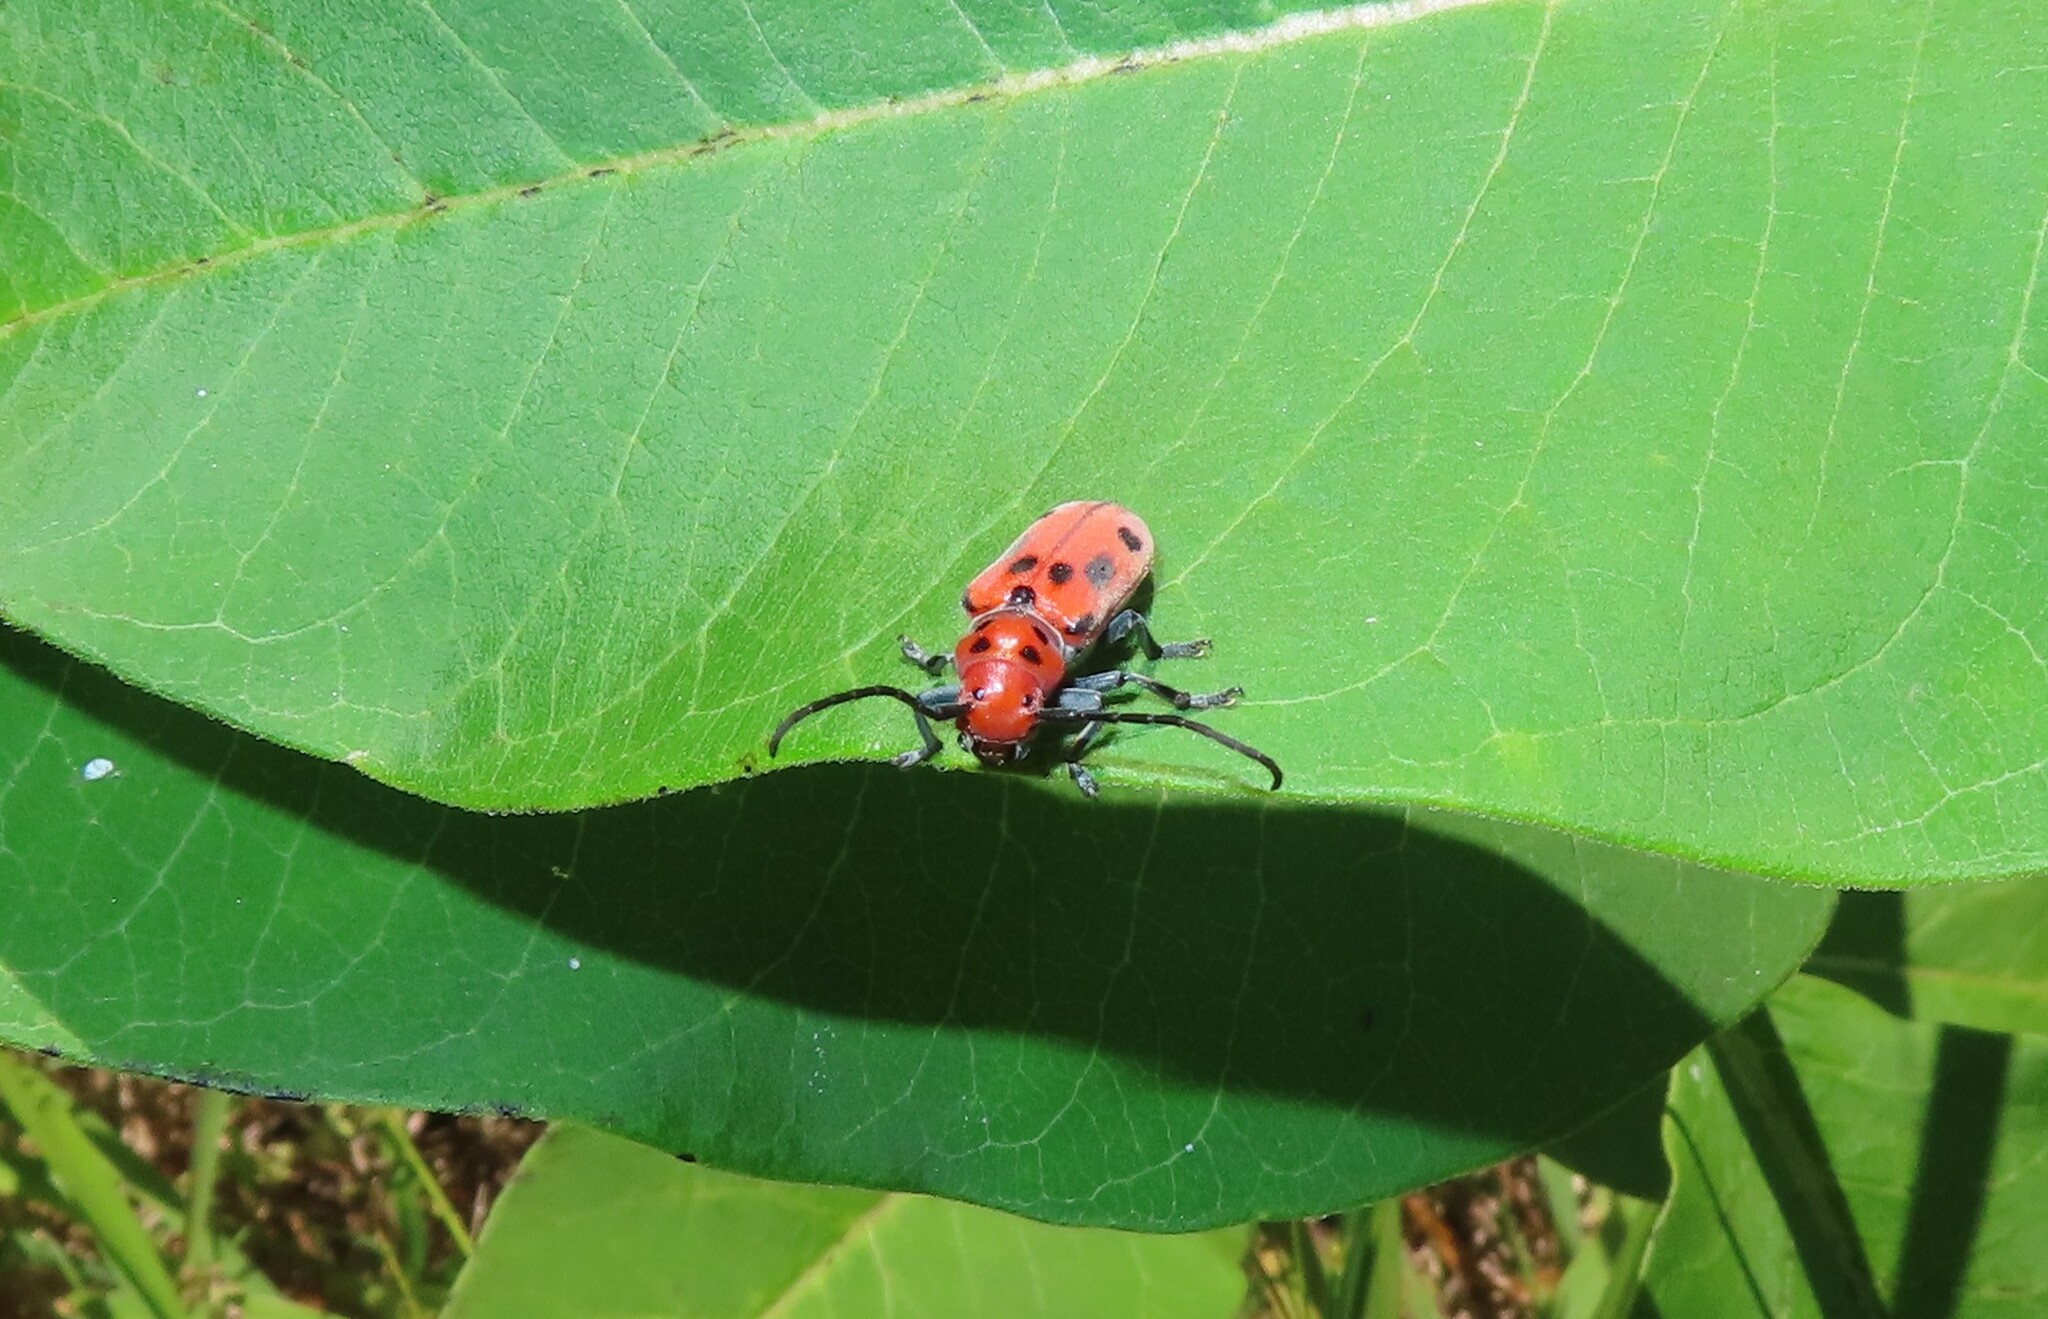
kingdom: Animalia
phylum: Arthropoda
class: Insecta
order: Coleoptera
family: Cerambycidae
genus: Tetraopes
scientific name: Tetraopes tetrophthalmus
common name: Red milkweed beetle
